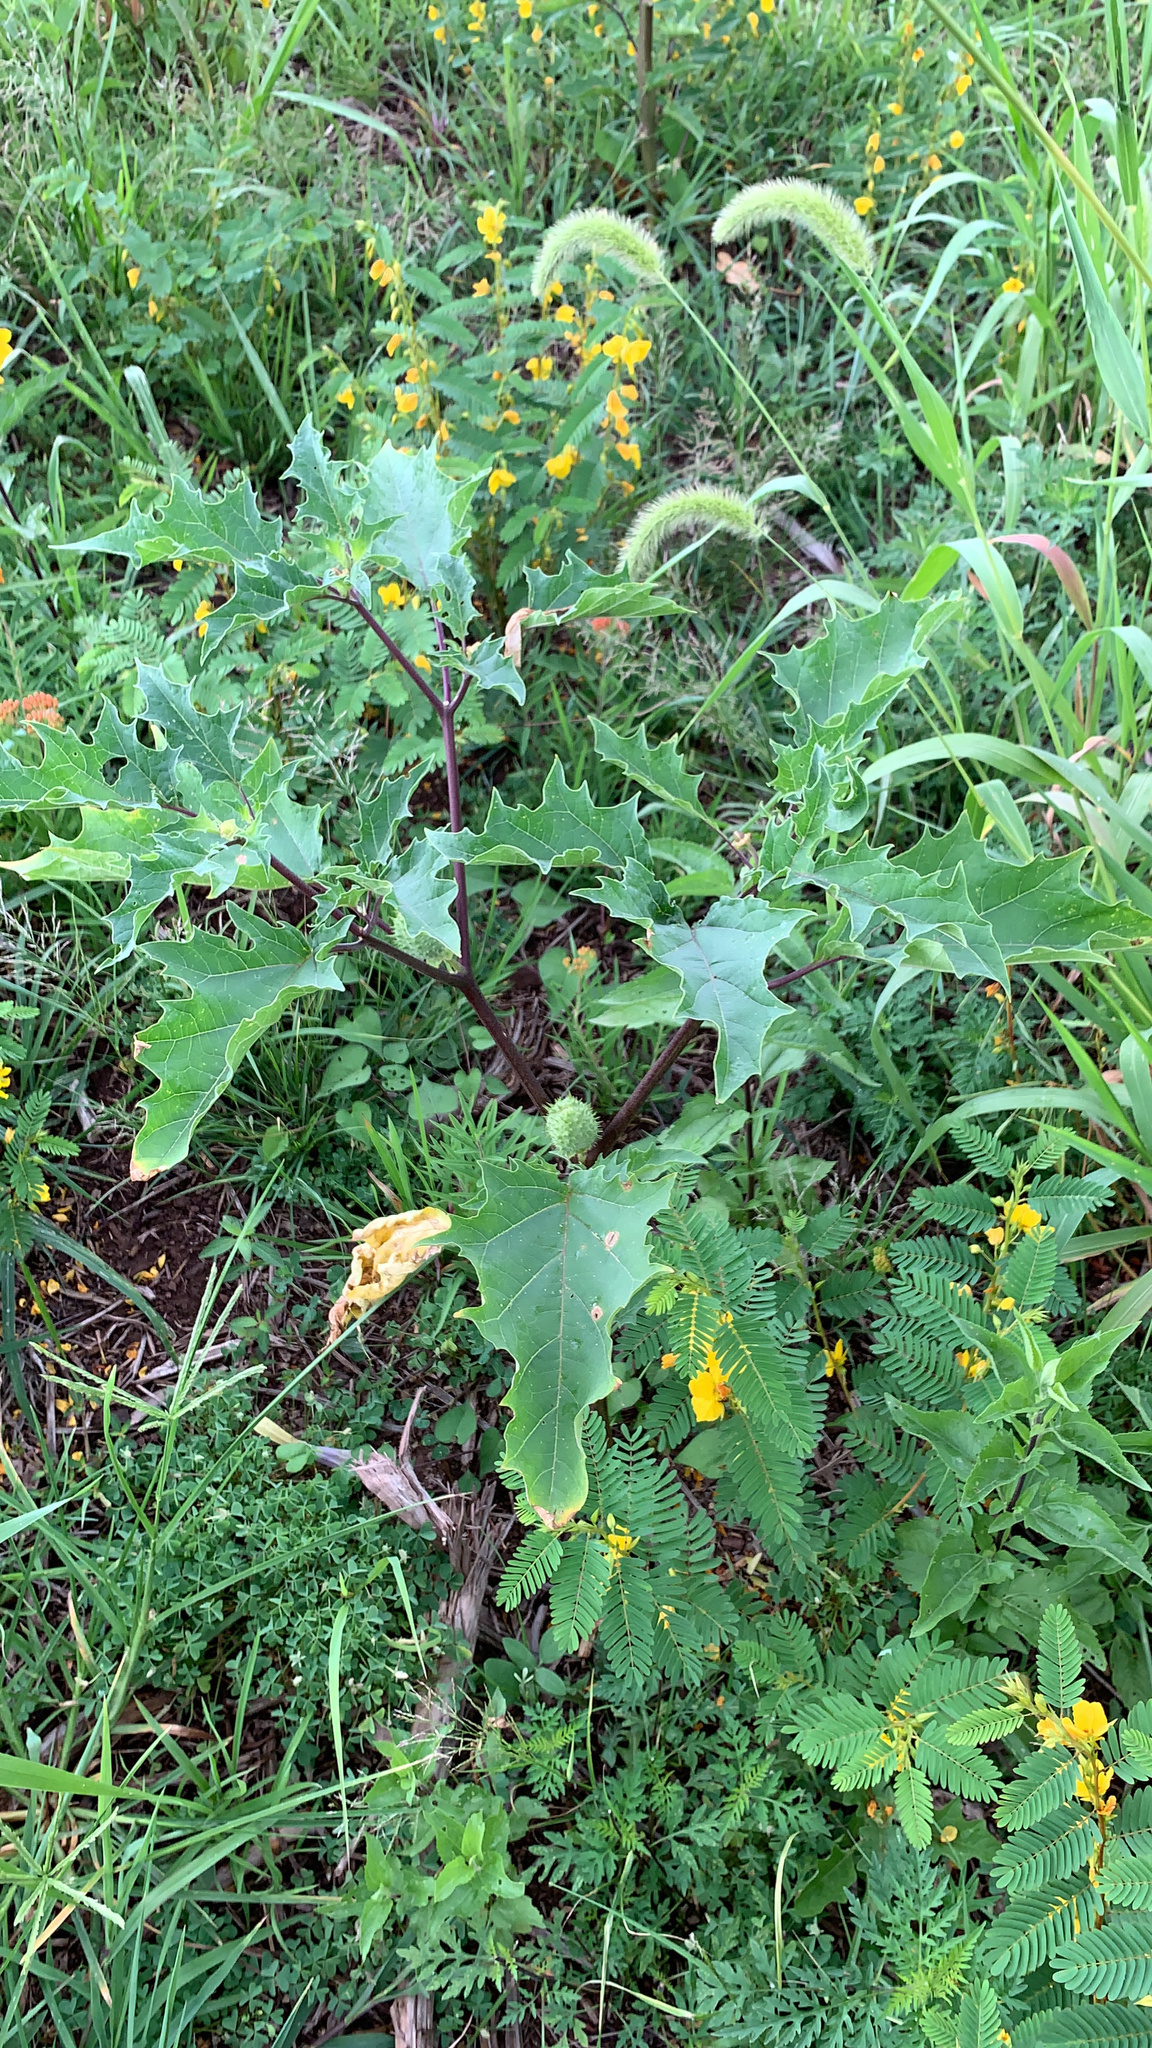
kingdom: Plantae
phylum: Tracheophyta
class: Magnoliopsida
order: Solanales
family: Solanaceae
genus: Datura
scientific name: Datura stramonium
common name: Thorn-apple
